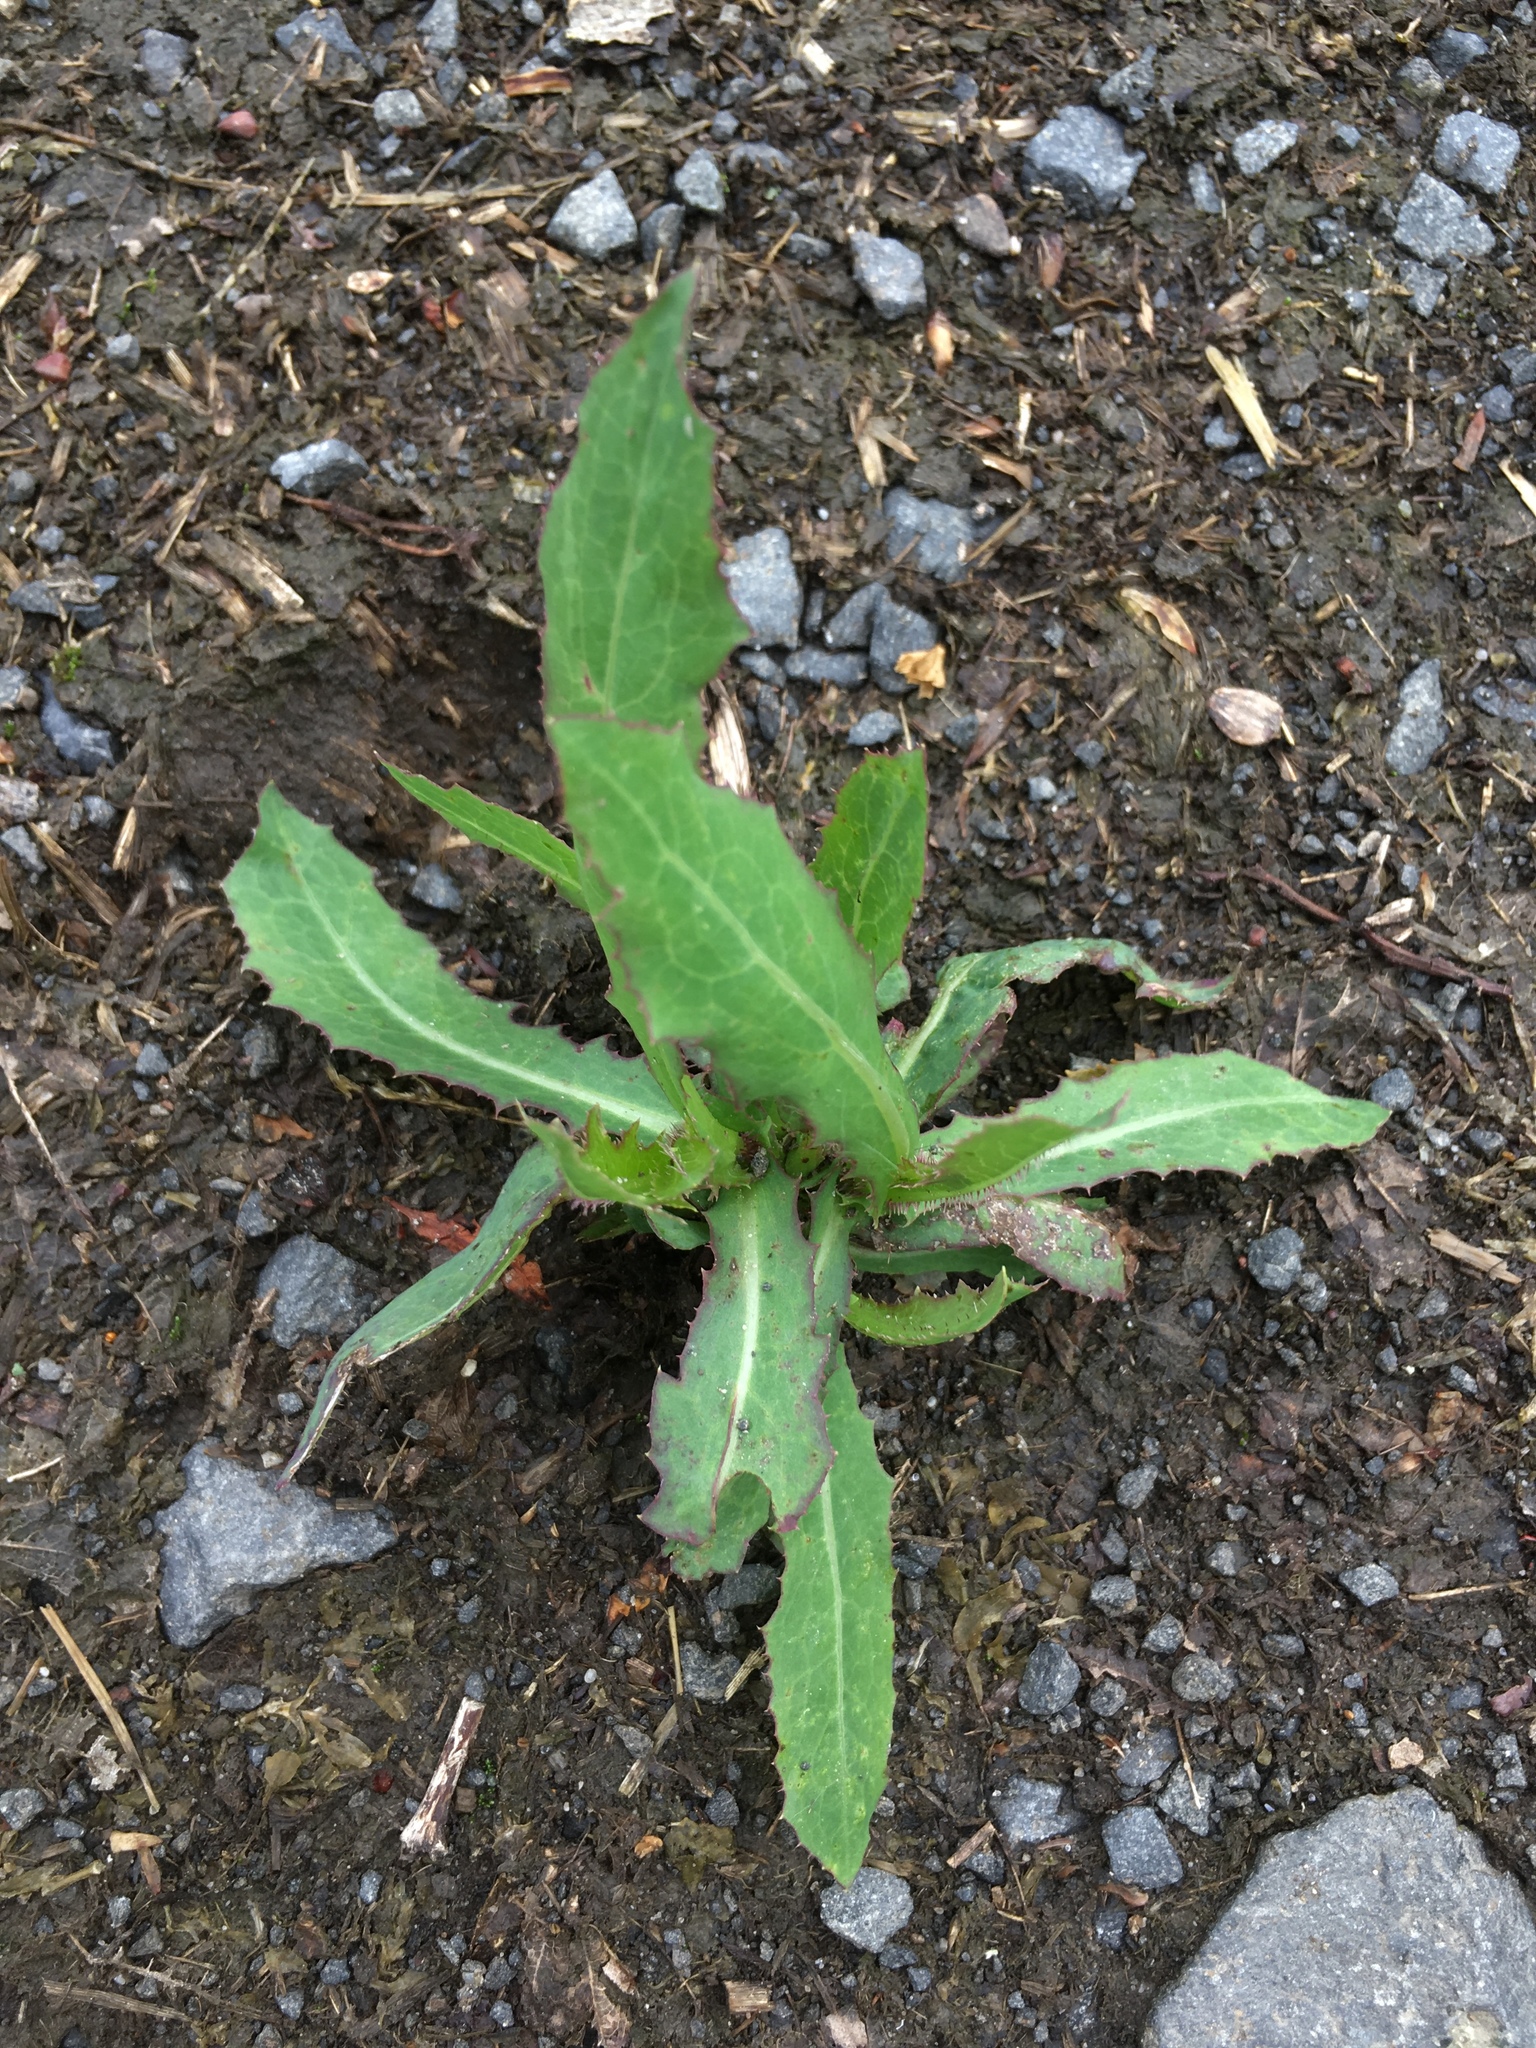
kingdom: Plantae
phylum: Tracheophyta
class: Magnoliopsida
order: Asterales
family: Asteraceae
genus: Lactuca
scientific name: Lactuca serriola
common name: Prickly lettuce
